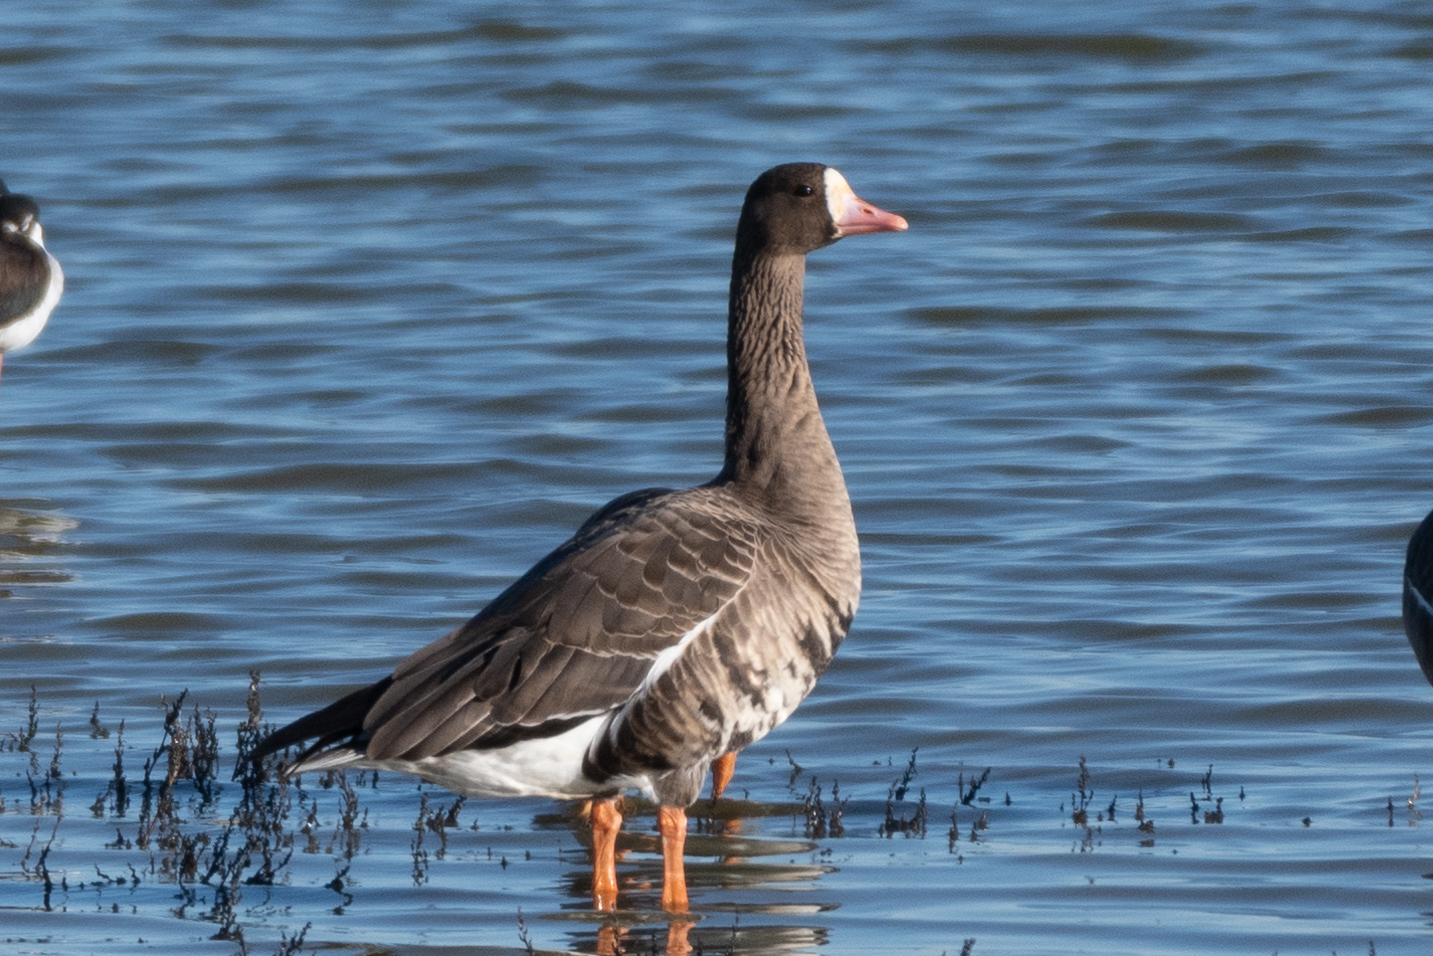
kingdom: Animalia
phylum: Chordata
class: Aves
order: Anseriformes
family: Anatidae
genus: Anser
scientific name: Anser albifrons
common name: Greater white-fronted goose
